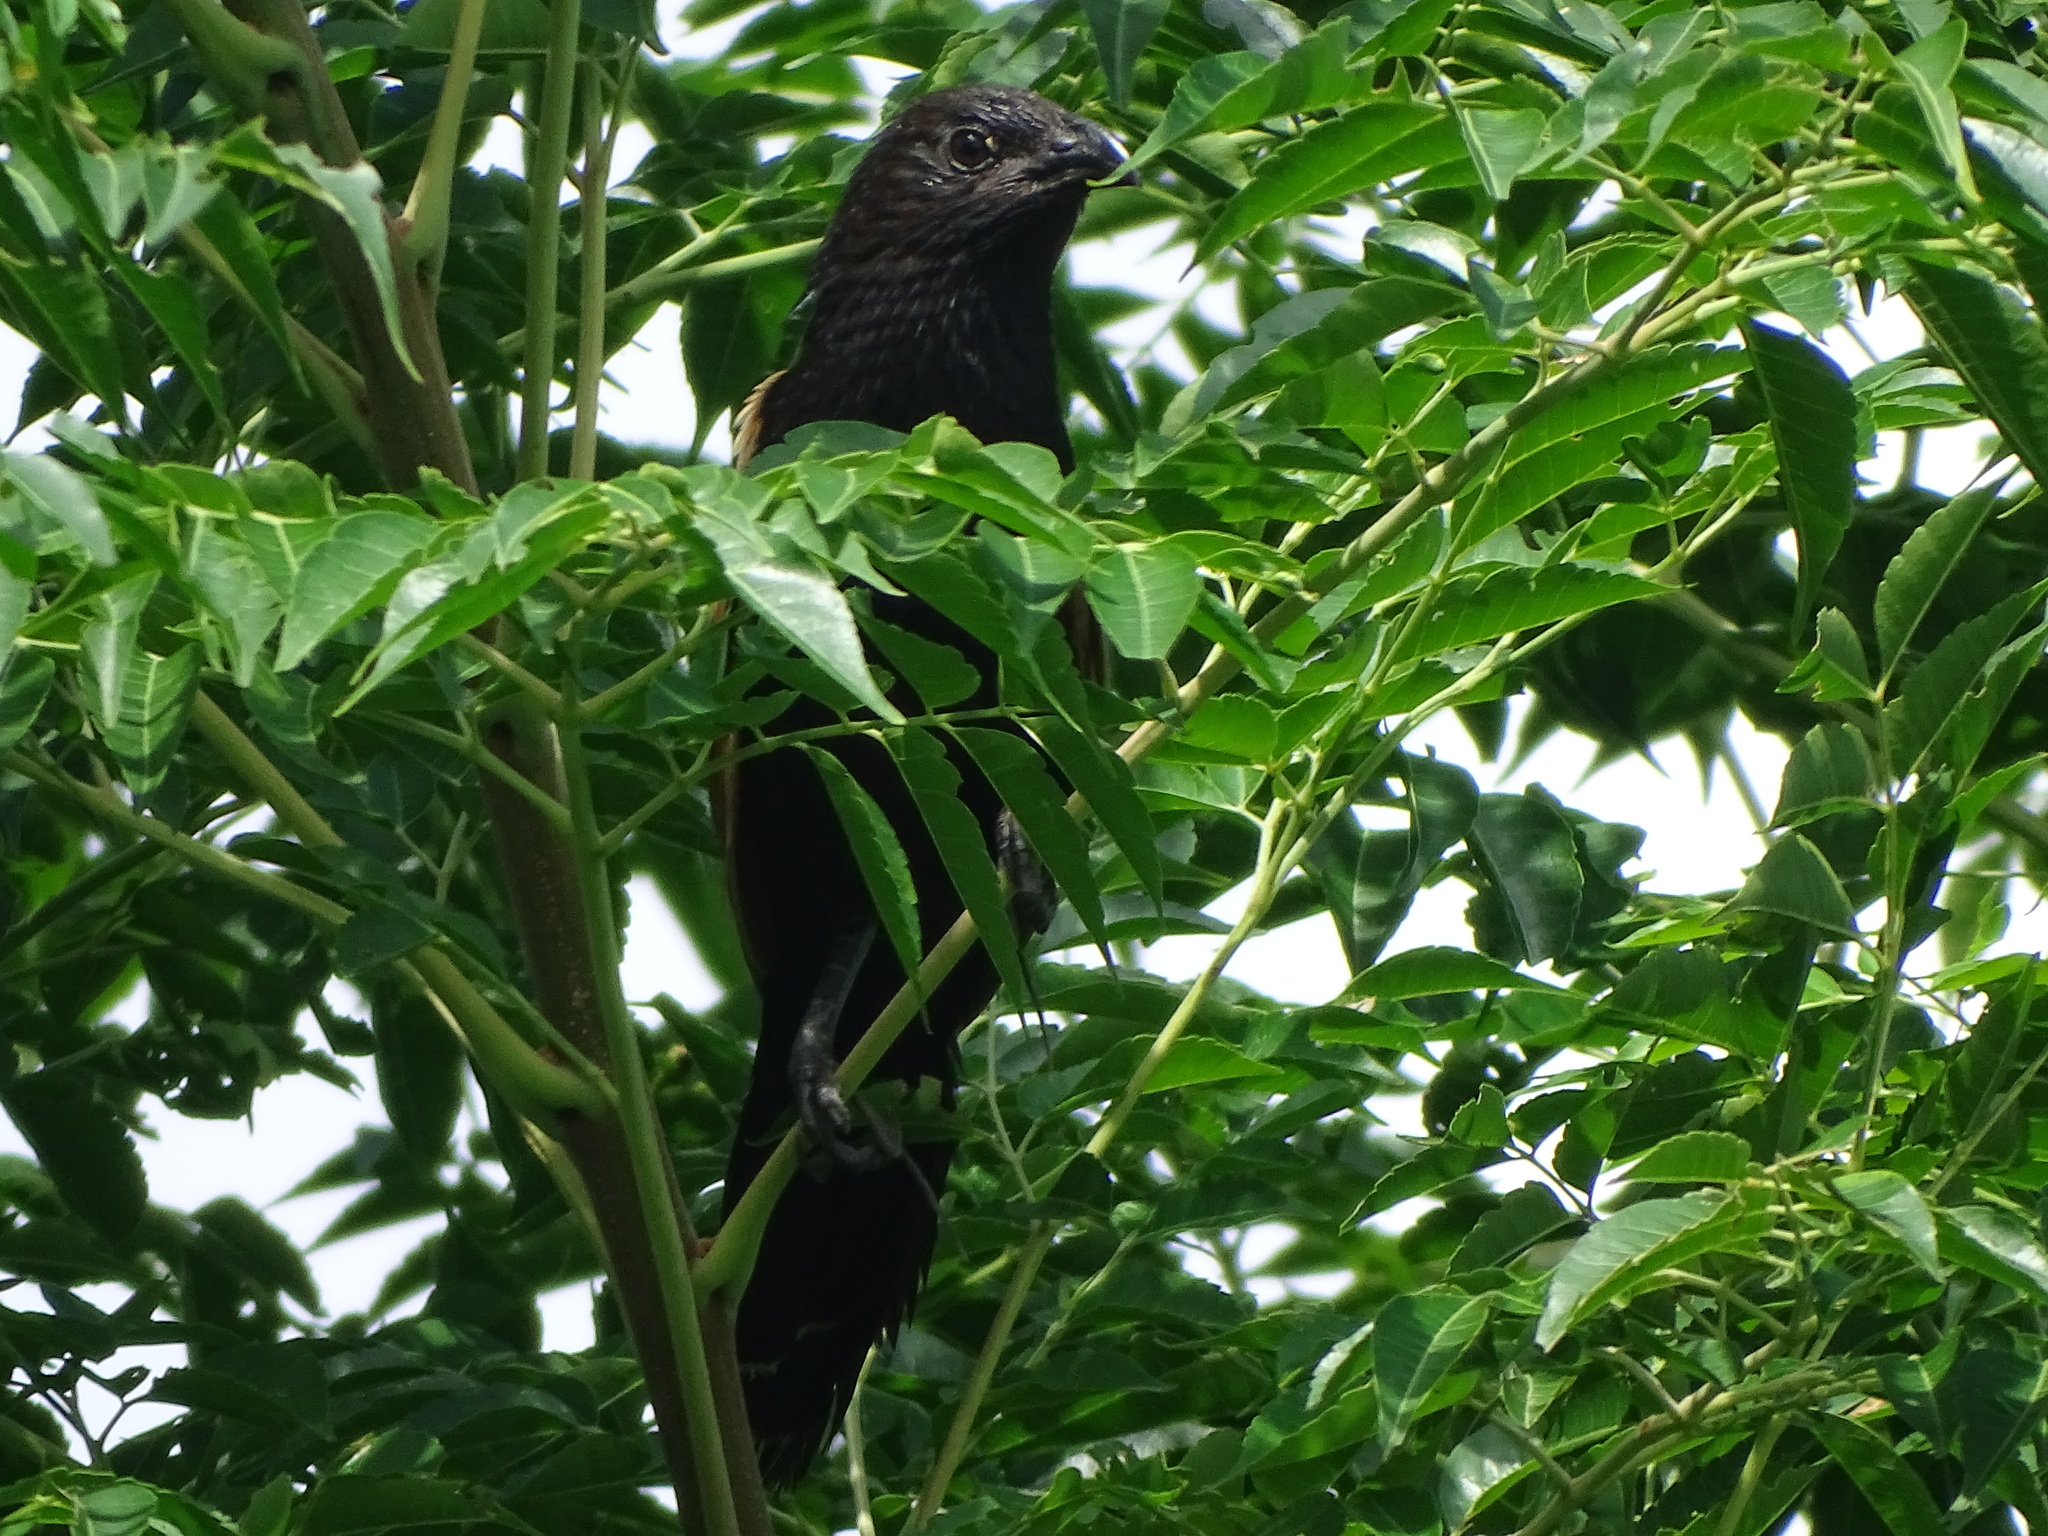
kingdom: Animalia
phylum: Chordata
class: Aves
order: Cuculiformes
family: Cuculidae
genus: Centropus
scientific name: Centropus bengalensis
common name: Lesser coucal
